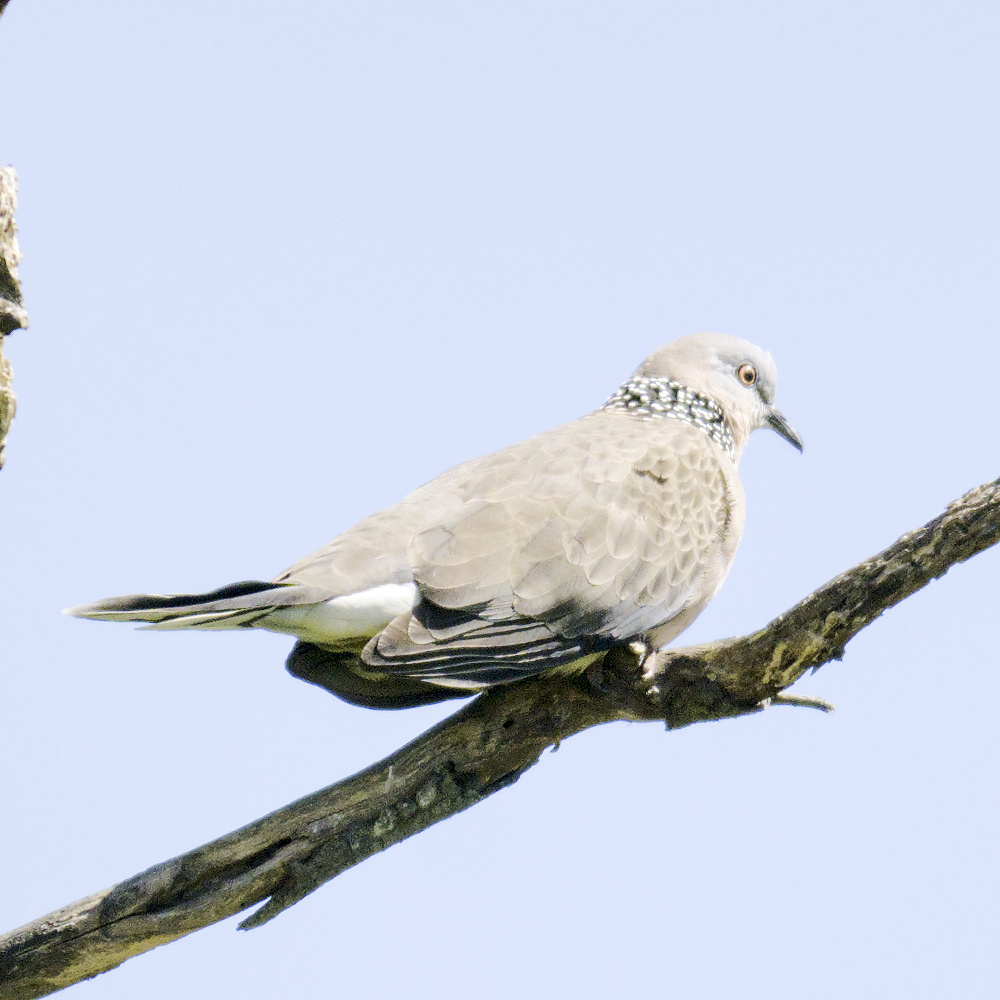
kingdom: Animalia
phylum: Chordata
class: Aves
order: Columbiformes
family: Columbidae
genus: Spilopelia
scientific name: Spilopelia chinensis
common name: Spotted dove
